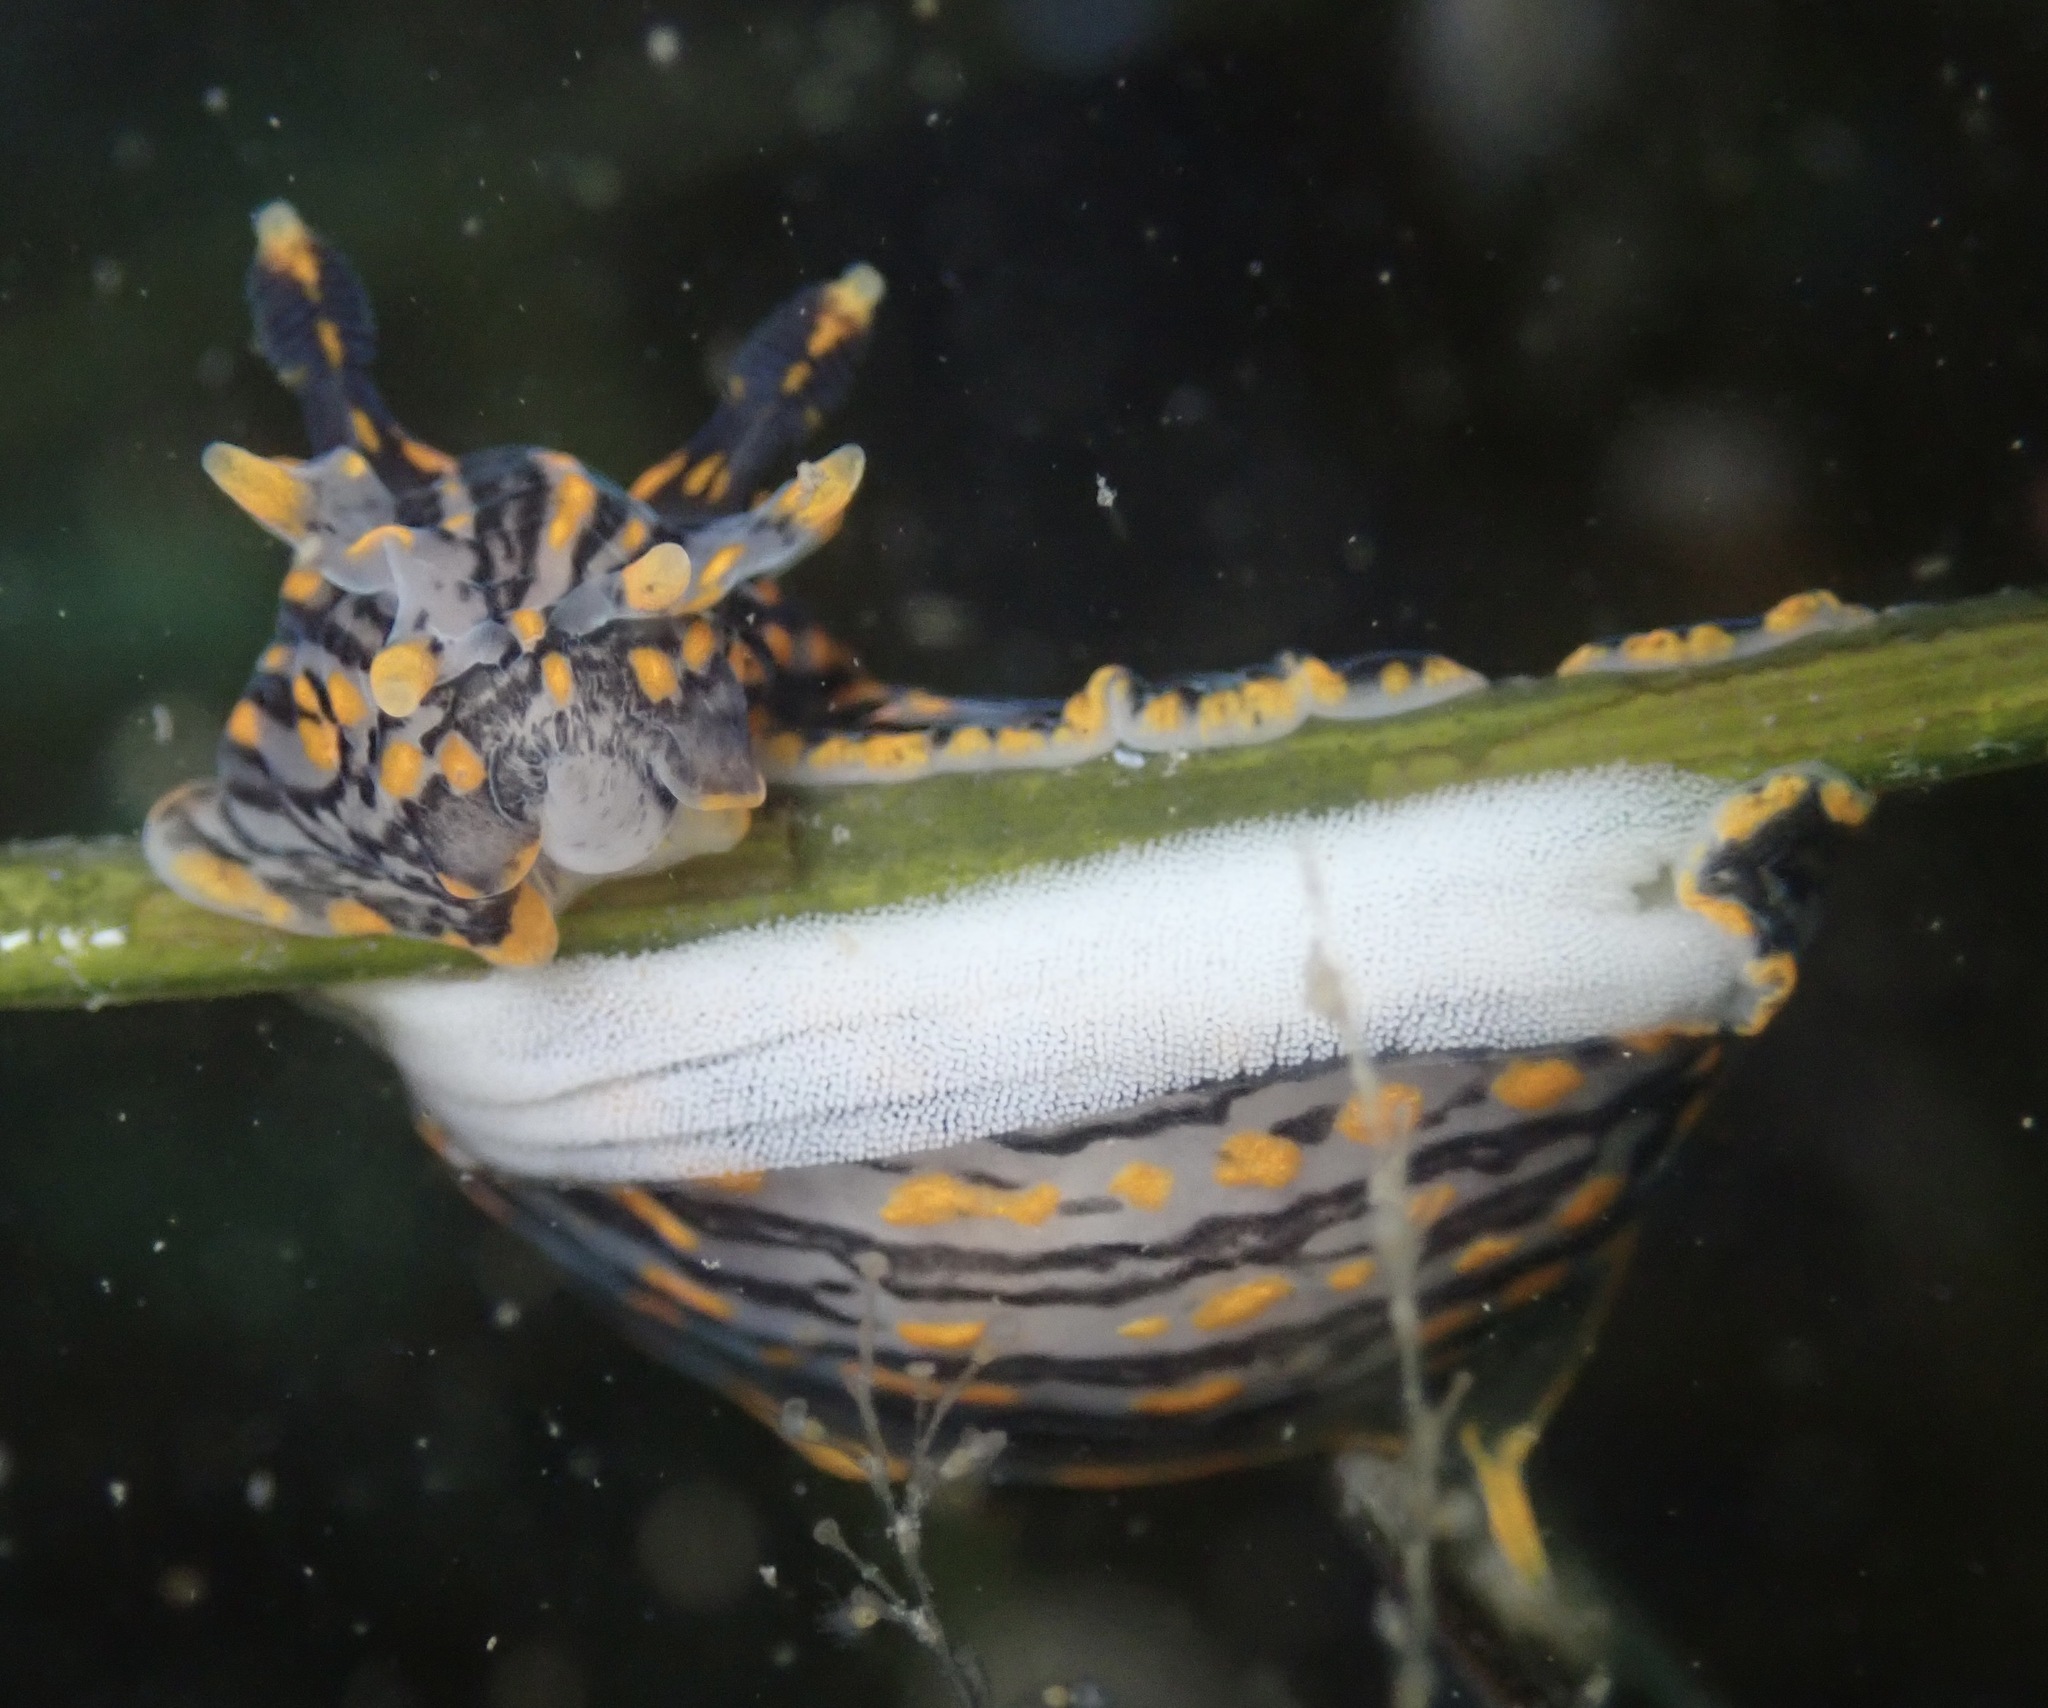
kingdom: Animalia
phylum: Mollusca
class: Gastropoda
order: Nudibranchia
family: Polyceridae
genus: Polycera
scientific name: Polycera atra
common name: Orange-spike polycera
